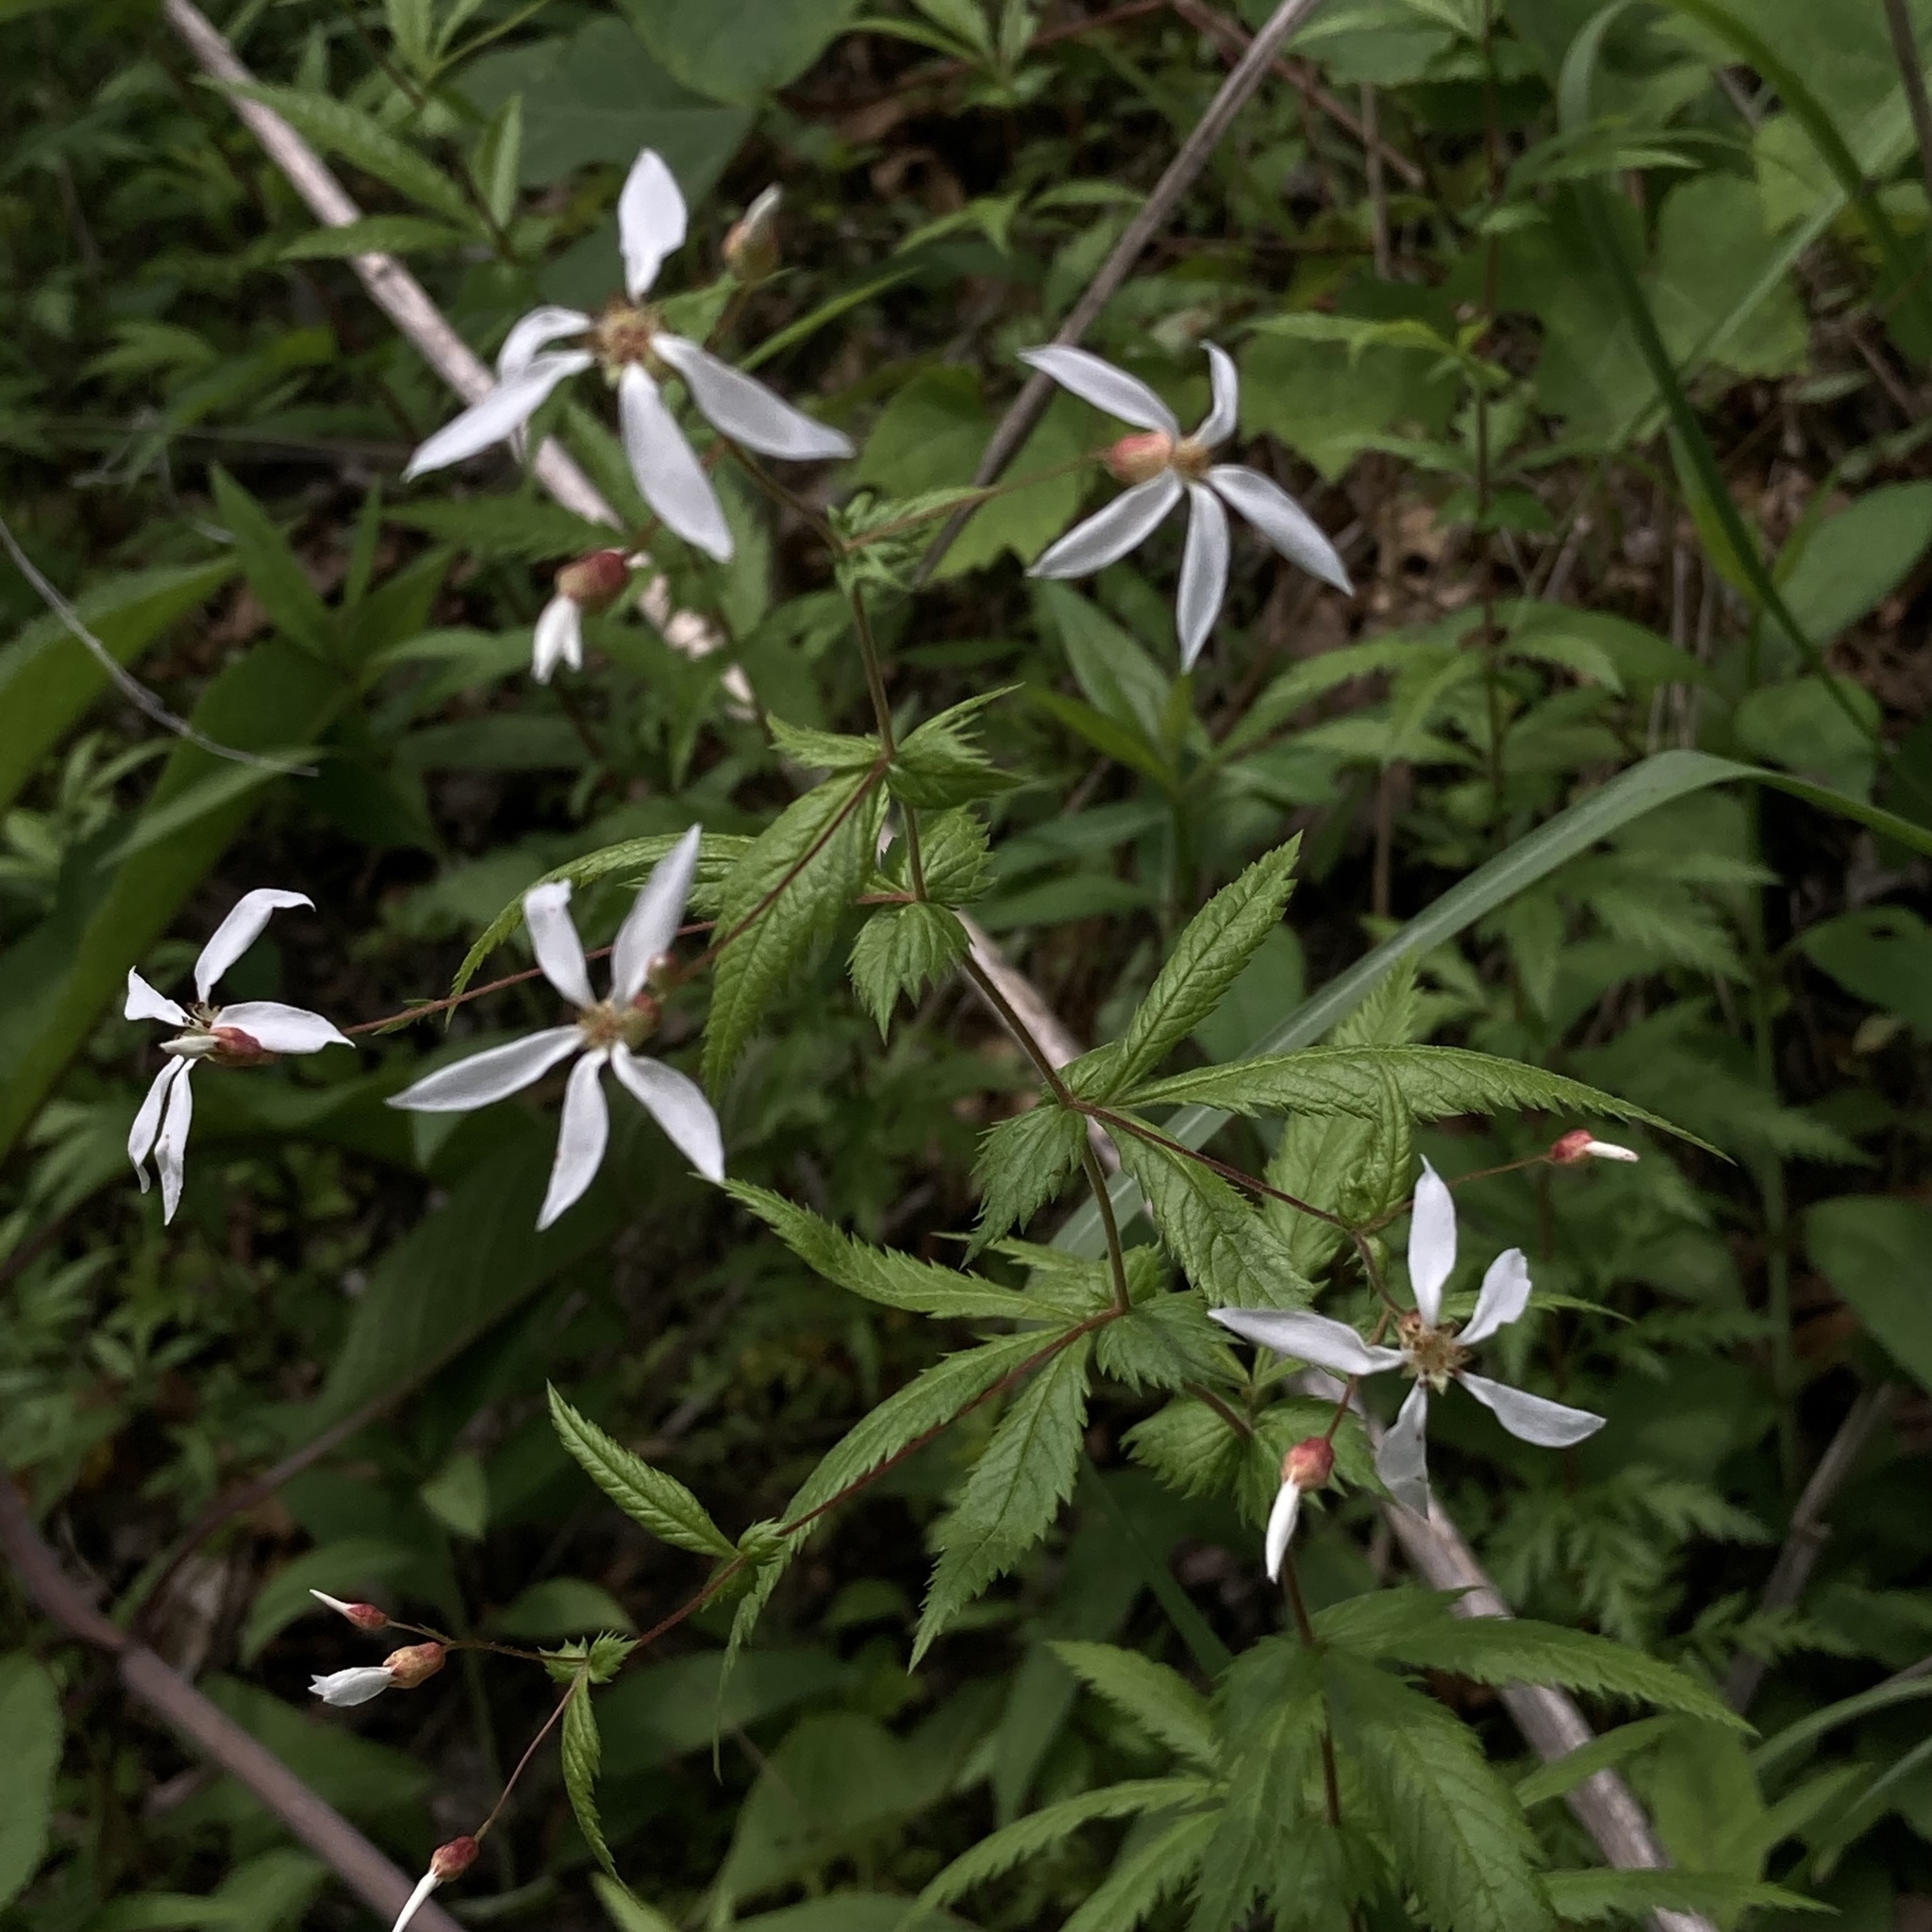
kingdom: Plantae
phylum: Tracheophyta
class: Magnoliopsida
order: Rosales
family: Rosaceae
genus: Gillenia
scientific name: Gillenia stipulata
